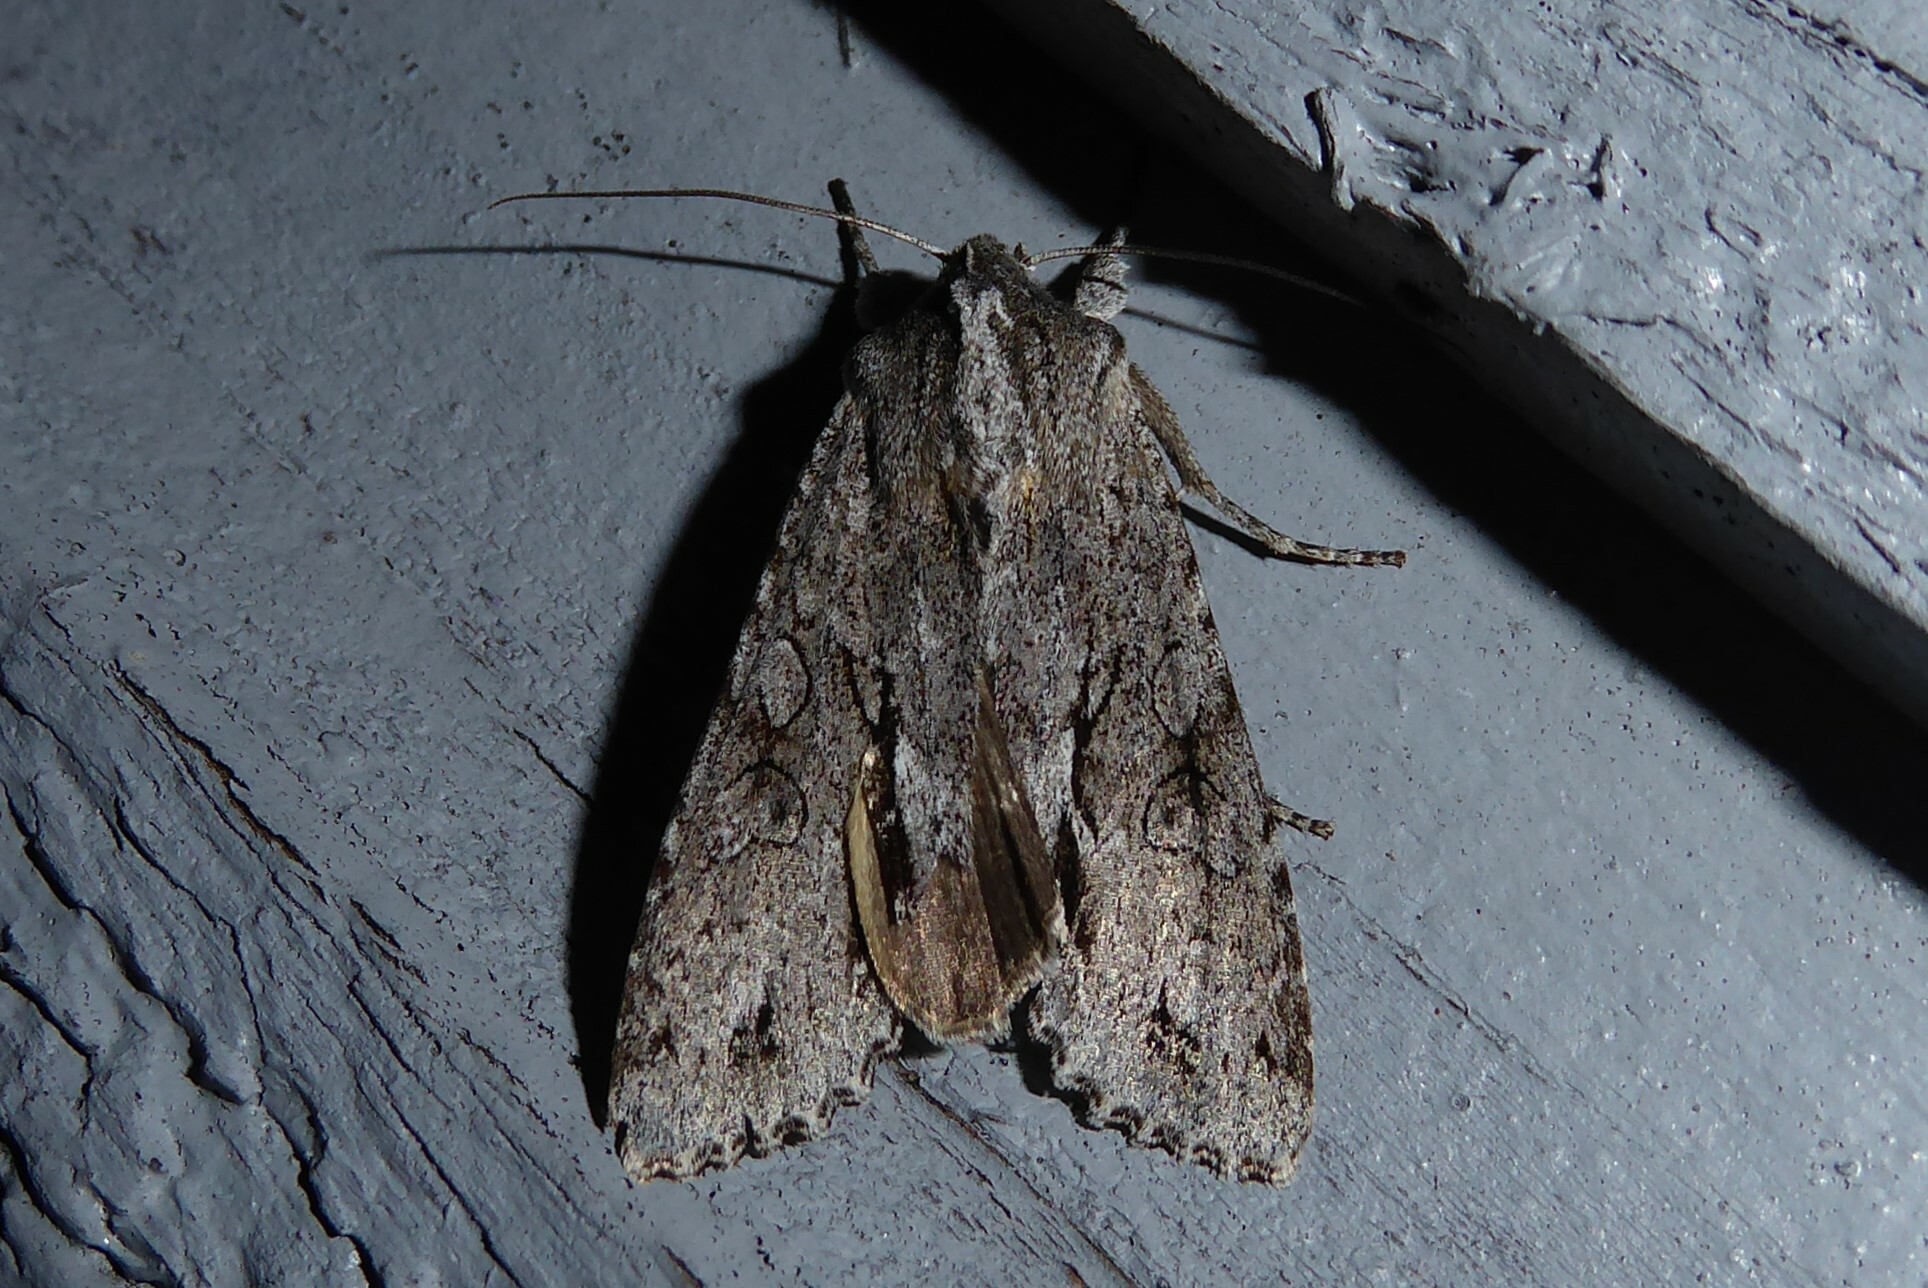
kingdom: Animalia
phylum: Arthropoda
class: Insecta
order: Lepidoptera
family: Noctuidae
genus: Ichneutica
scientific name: Ichneutica
